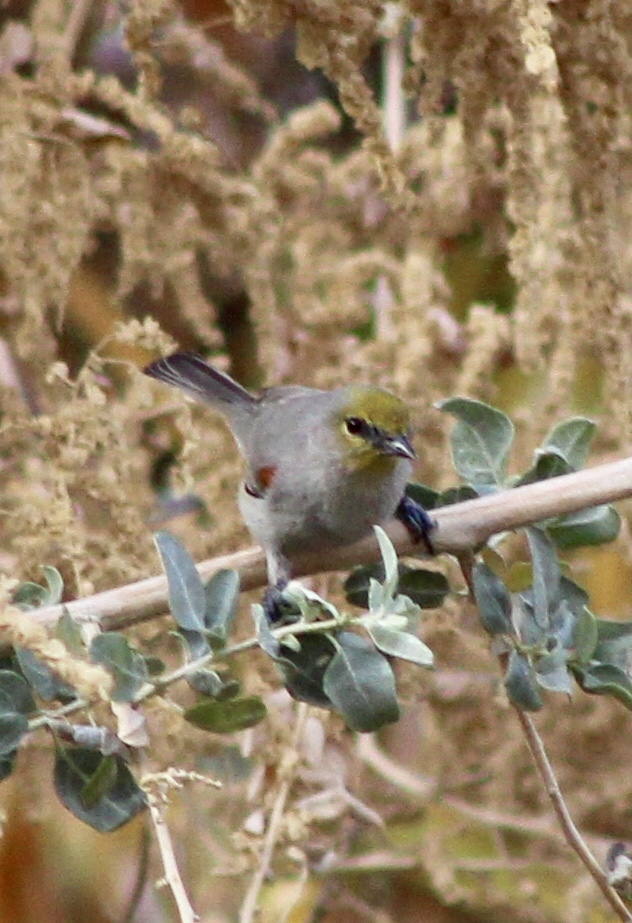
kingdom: Animalia
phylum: Chordata
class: Aves
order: Passeriformes
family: Remizidae
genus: Auriparus
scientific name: Auriparus flaviceps
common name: Verdin
